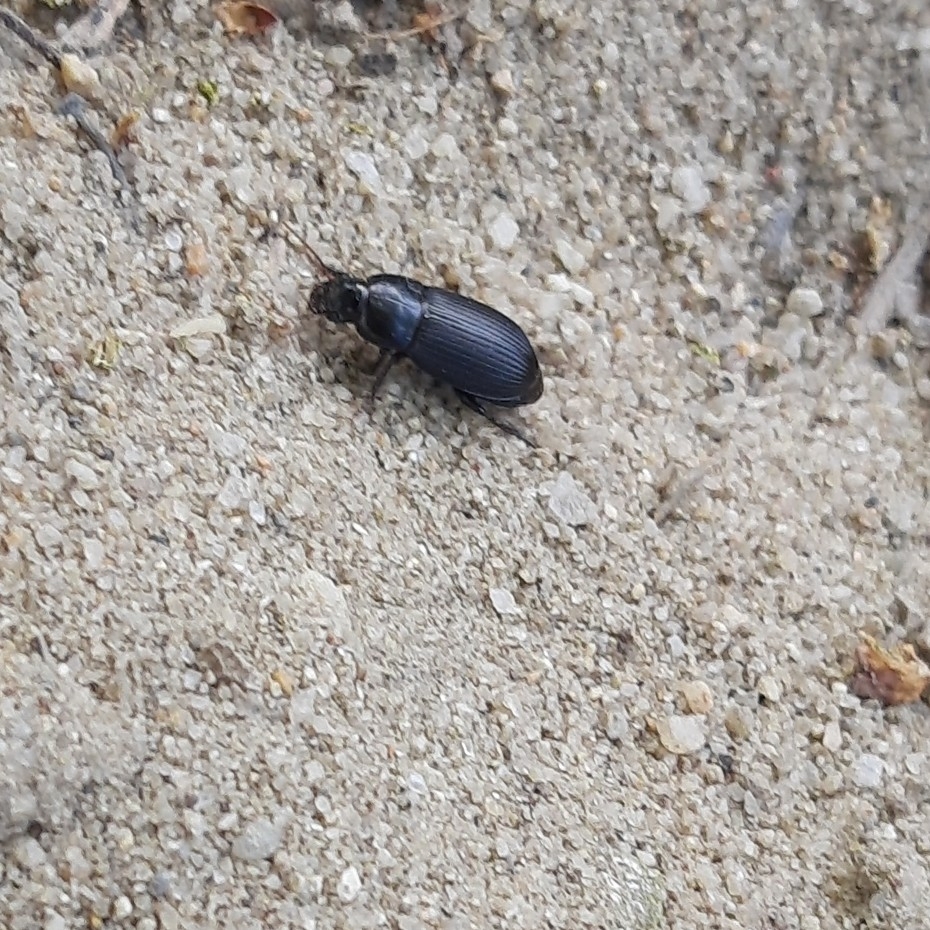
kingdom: Animalia
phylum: Arthropoda
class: Insecta
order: Coleoptera
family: Carabidae
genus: Harpalus
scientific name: Harpalus
